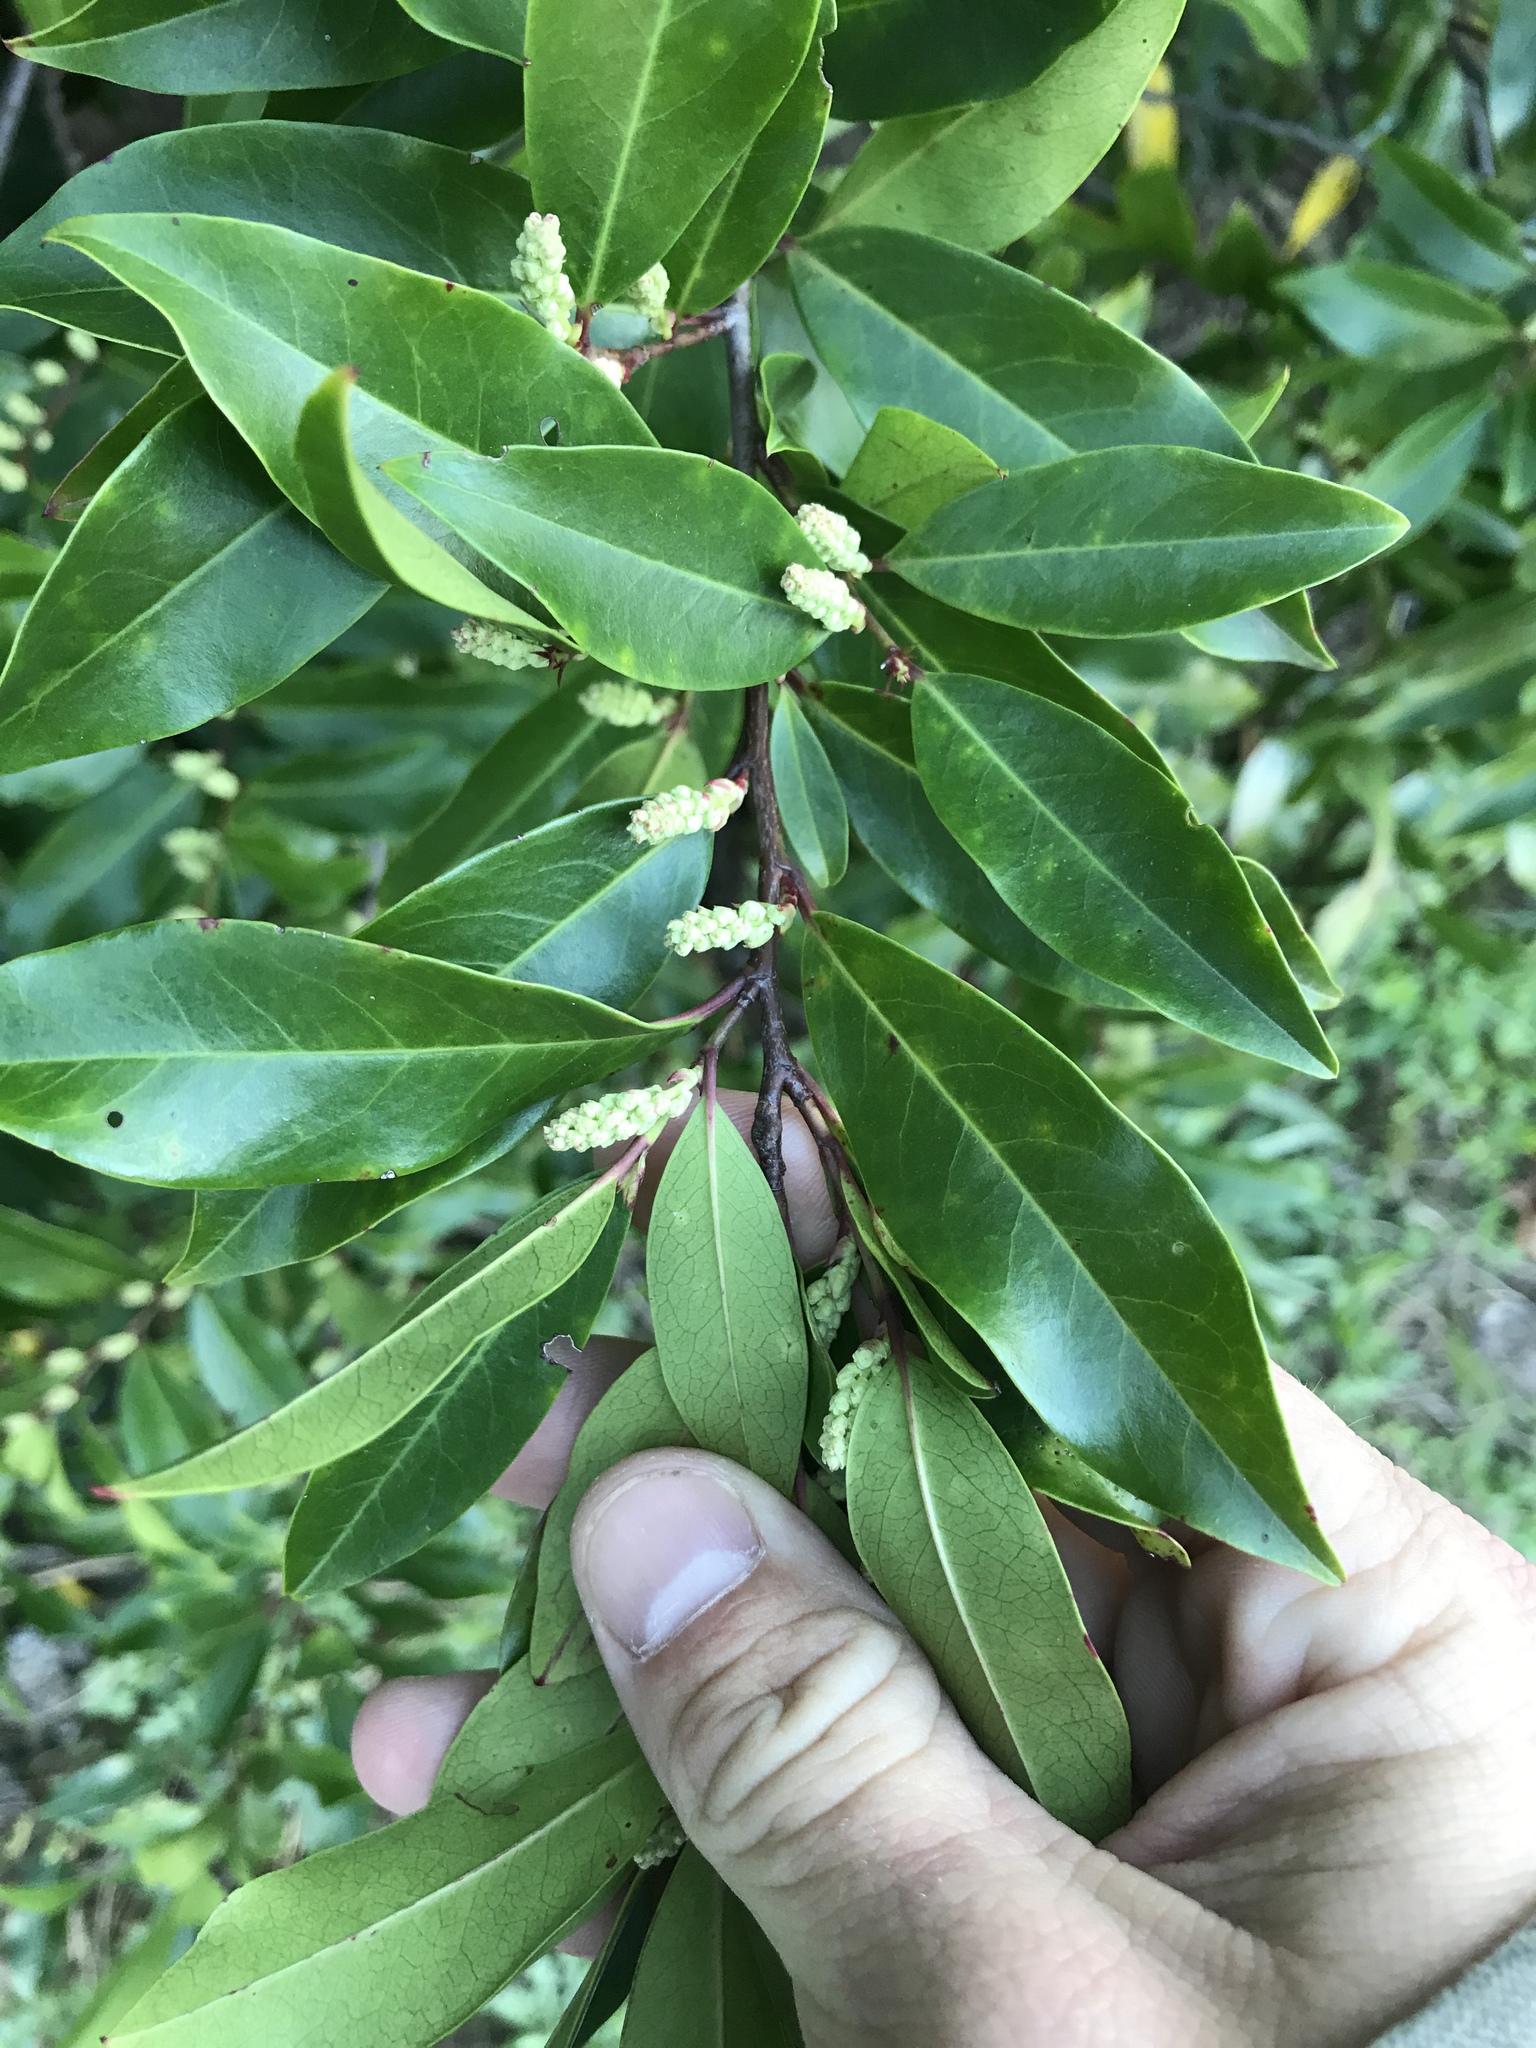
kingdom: Plantae
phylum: Tracheophyta
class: Magnoliopsida
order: Rosales
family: Rosaceae
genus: Prunus
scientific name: Prunus caroliniana
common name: Carolina laurel cherry
